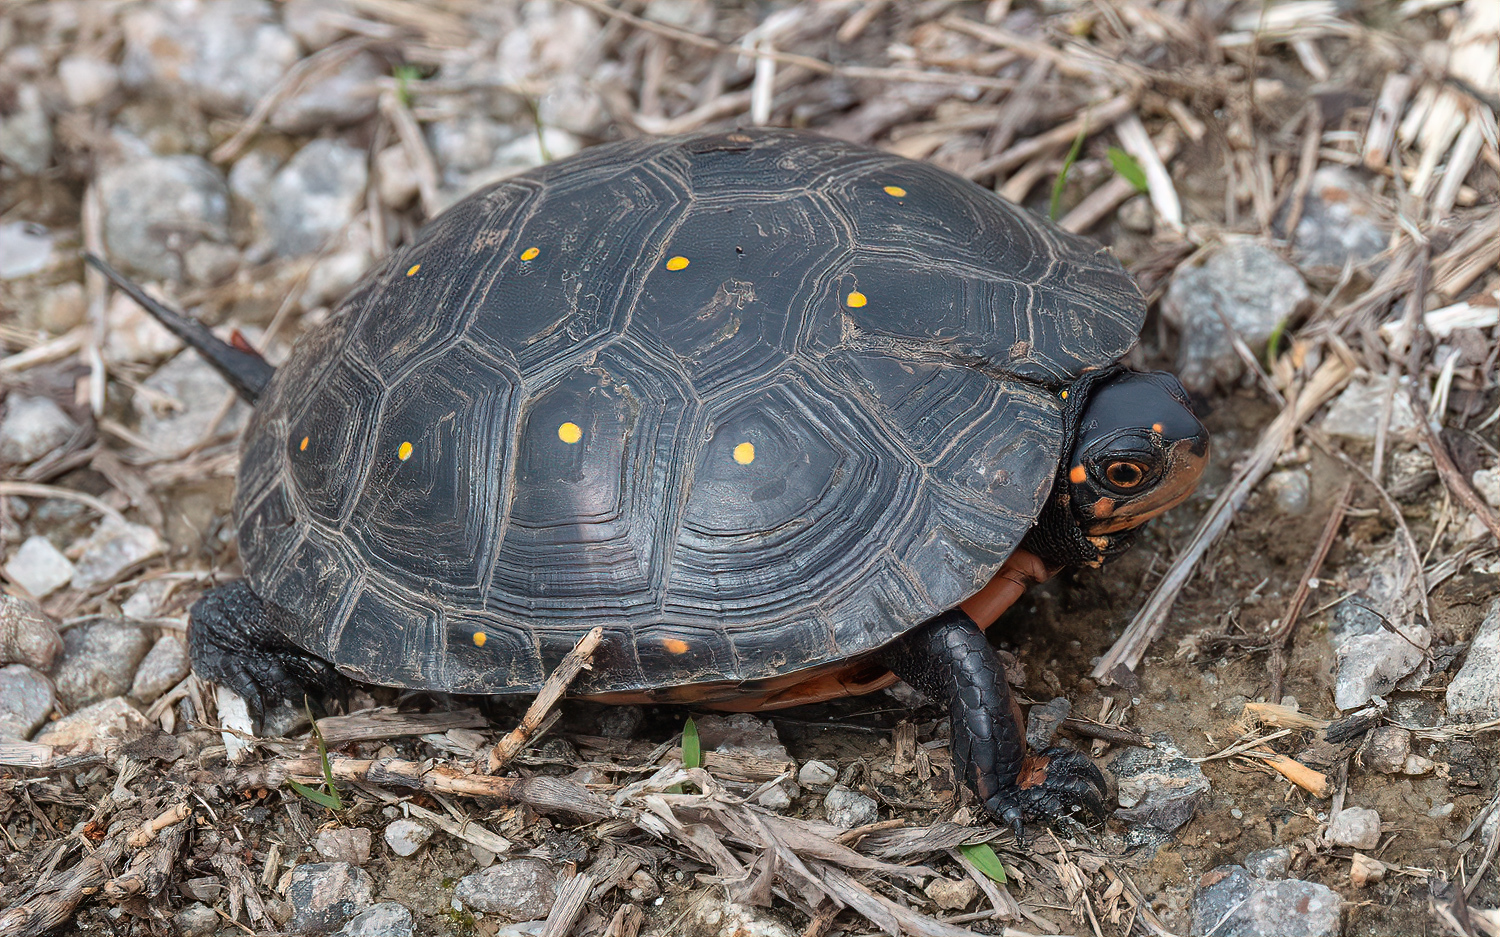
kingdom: Animalia
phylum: Chordata
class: Testudines
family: Emydidae
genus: Clemmys
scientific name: Clemmys guttata
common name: Spotted turtle
